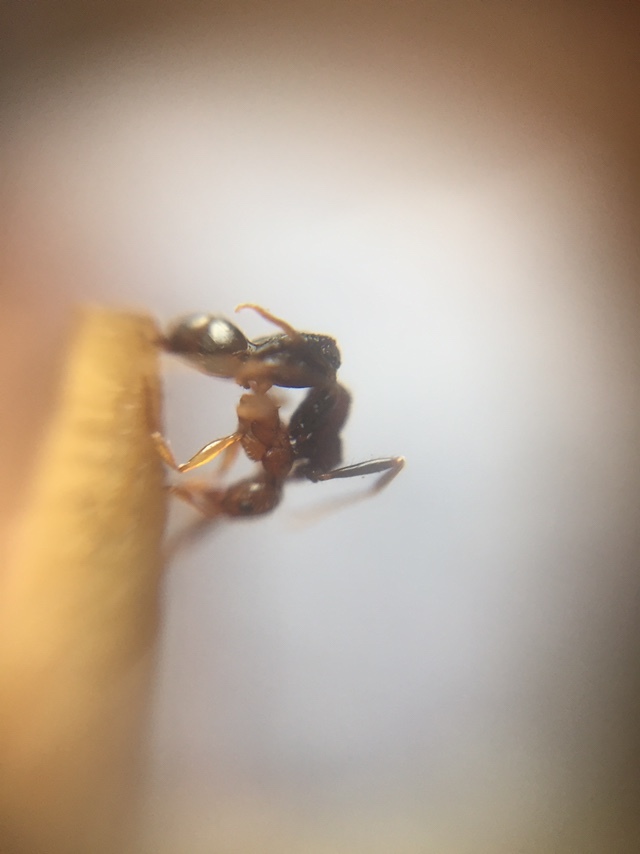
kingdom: Animalia
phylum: Arthropoda
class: Insecta
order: Hymenoptera
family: Formicidae
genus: Pheidole
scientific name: Pheidole indica
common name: Big-headed ant
